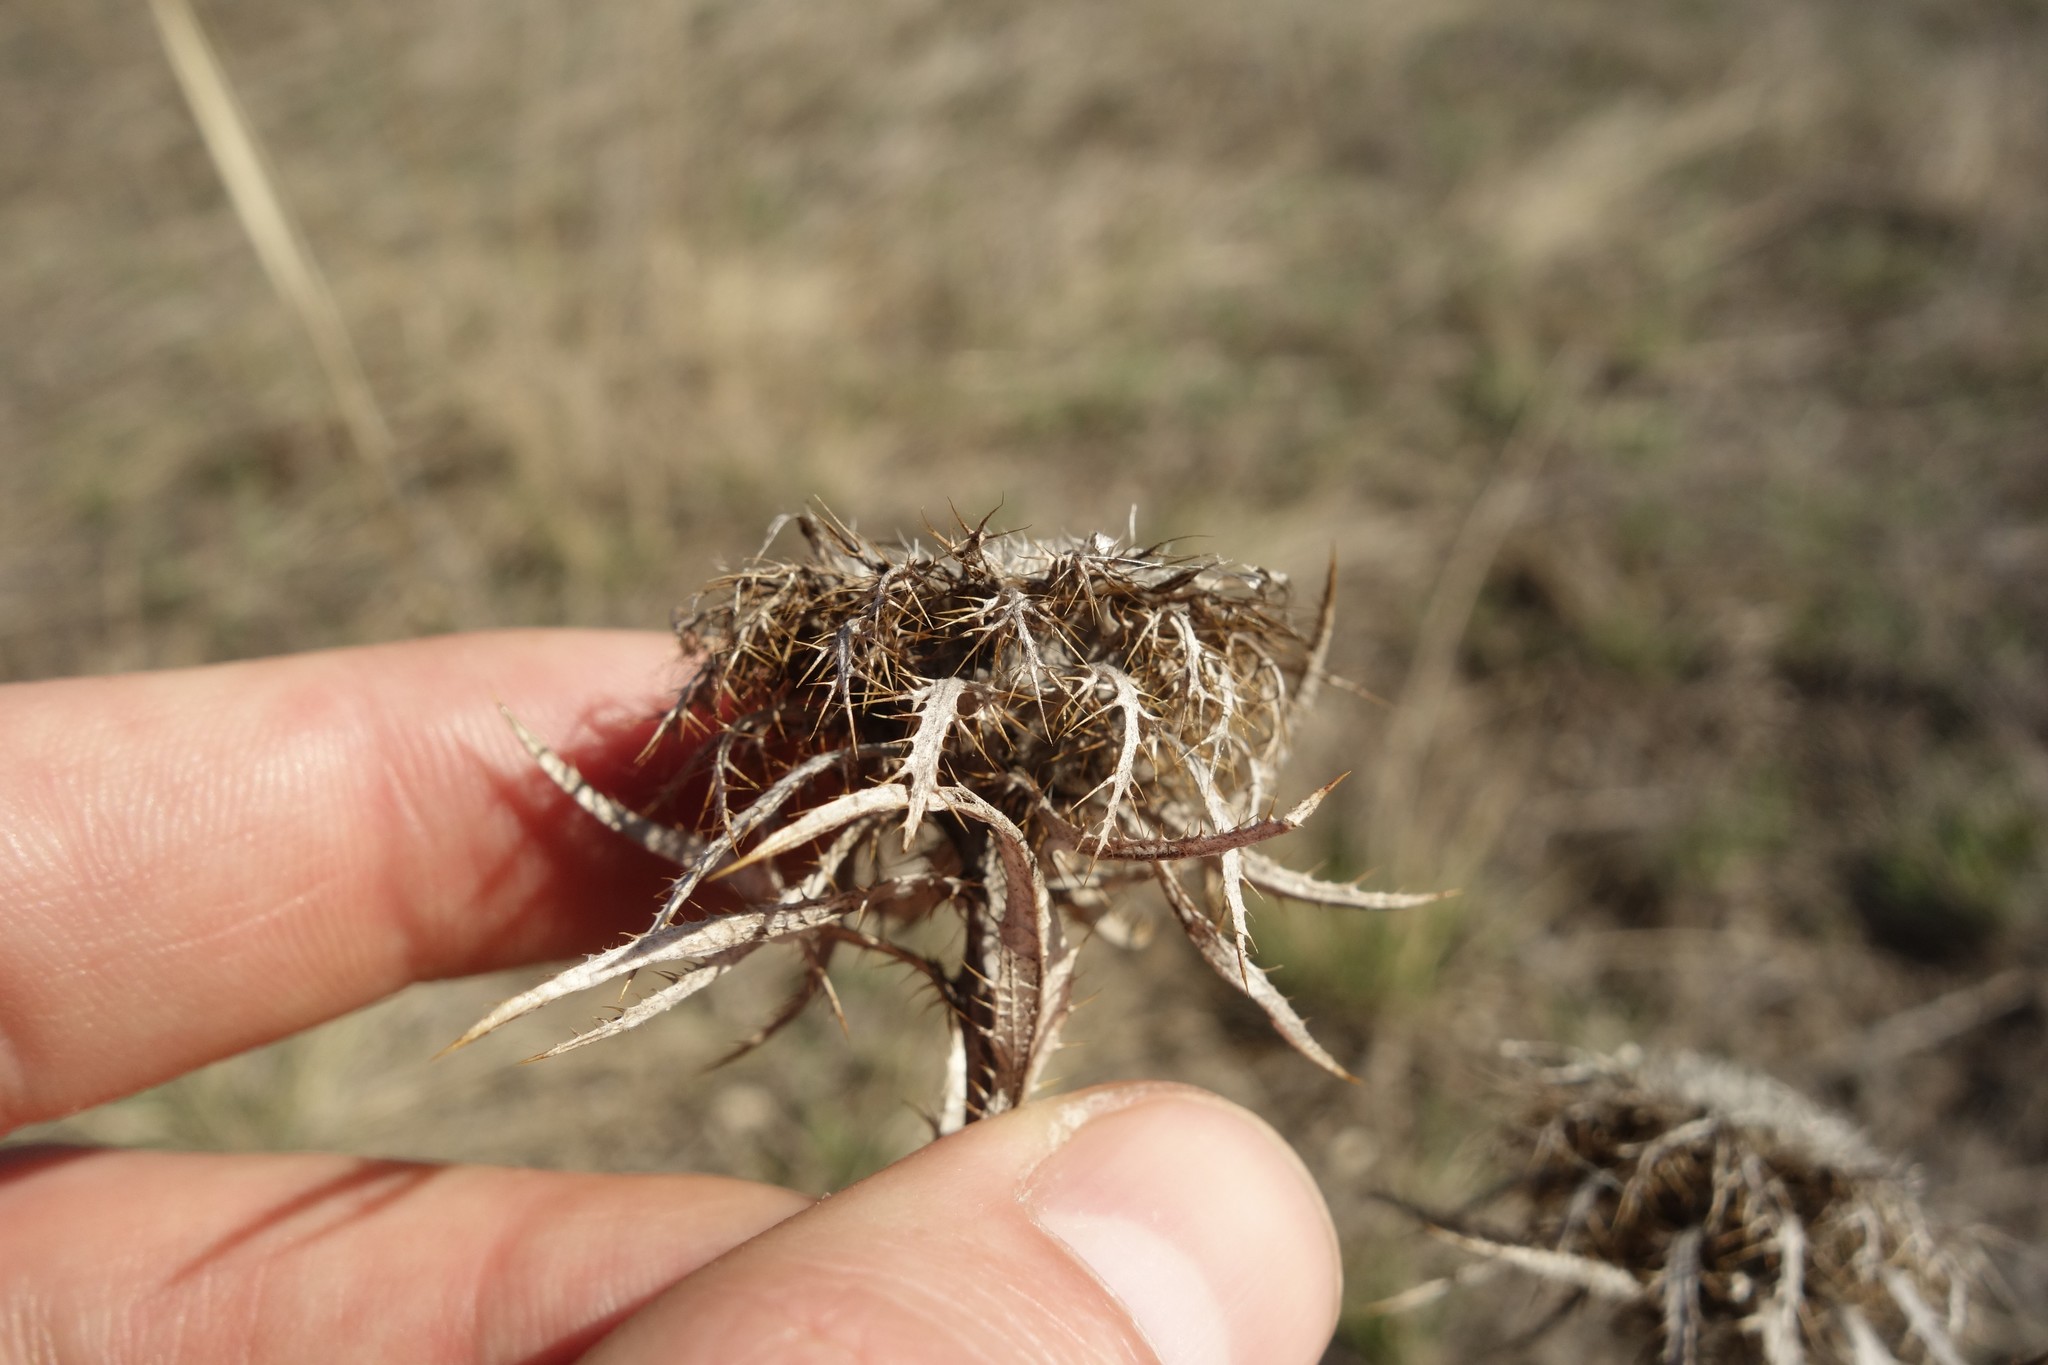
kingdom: Plantae
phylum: Tracheophyta
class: Magnoliopsida
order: Asterales
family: Asteraceae
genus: Carlina
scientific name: Carlina biebersteinii
